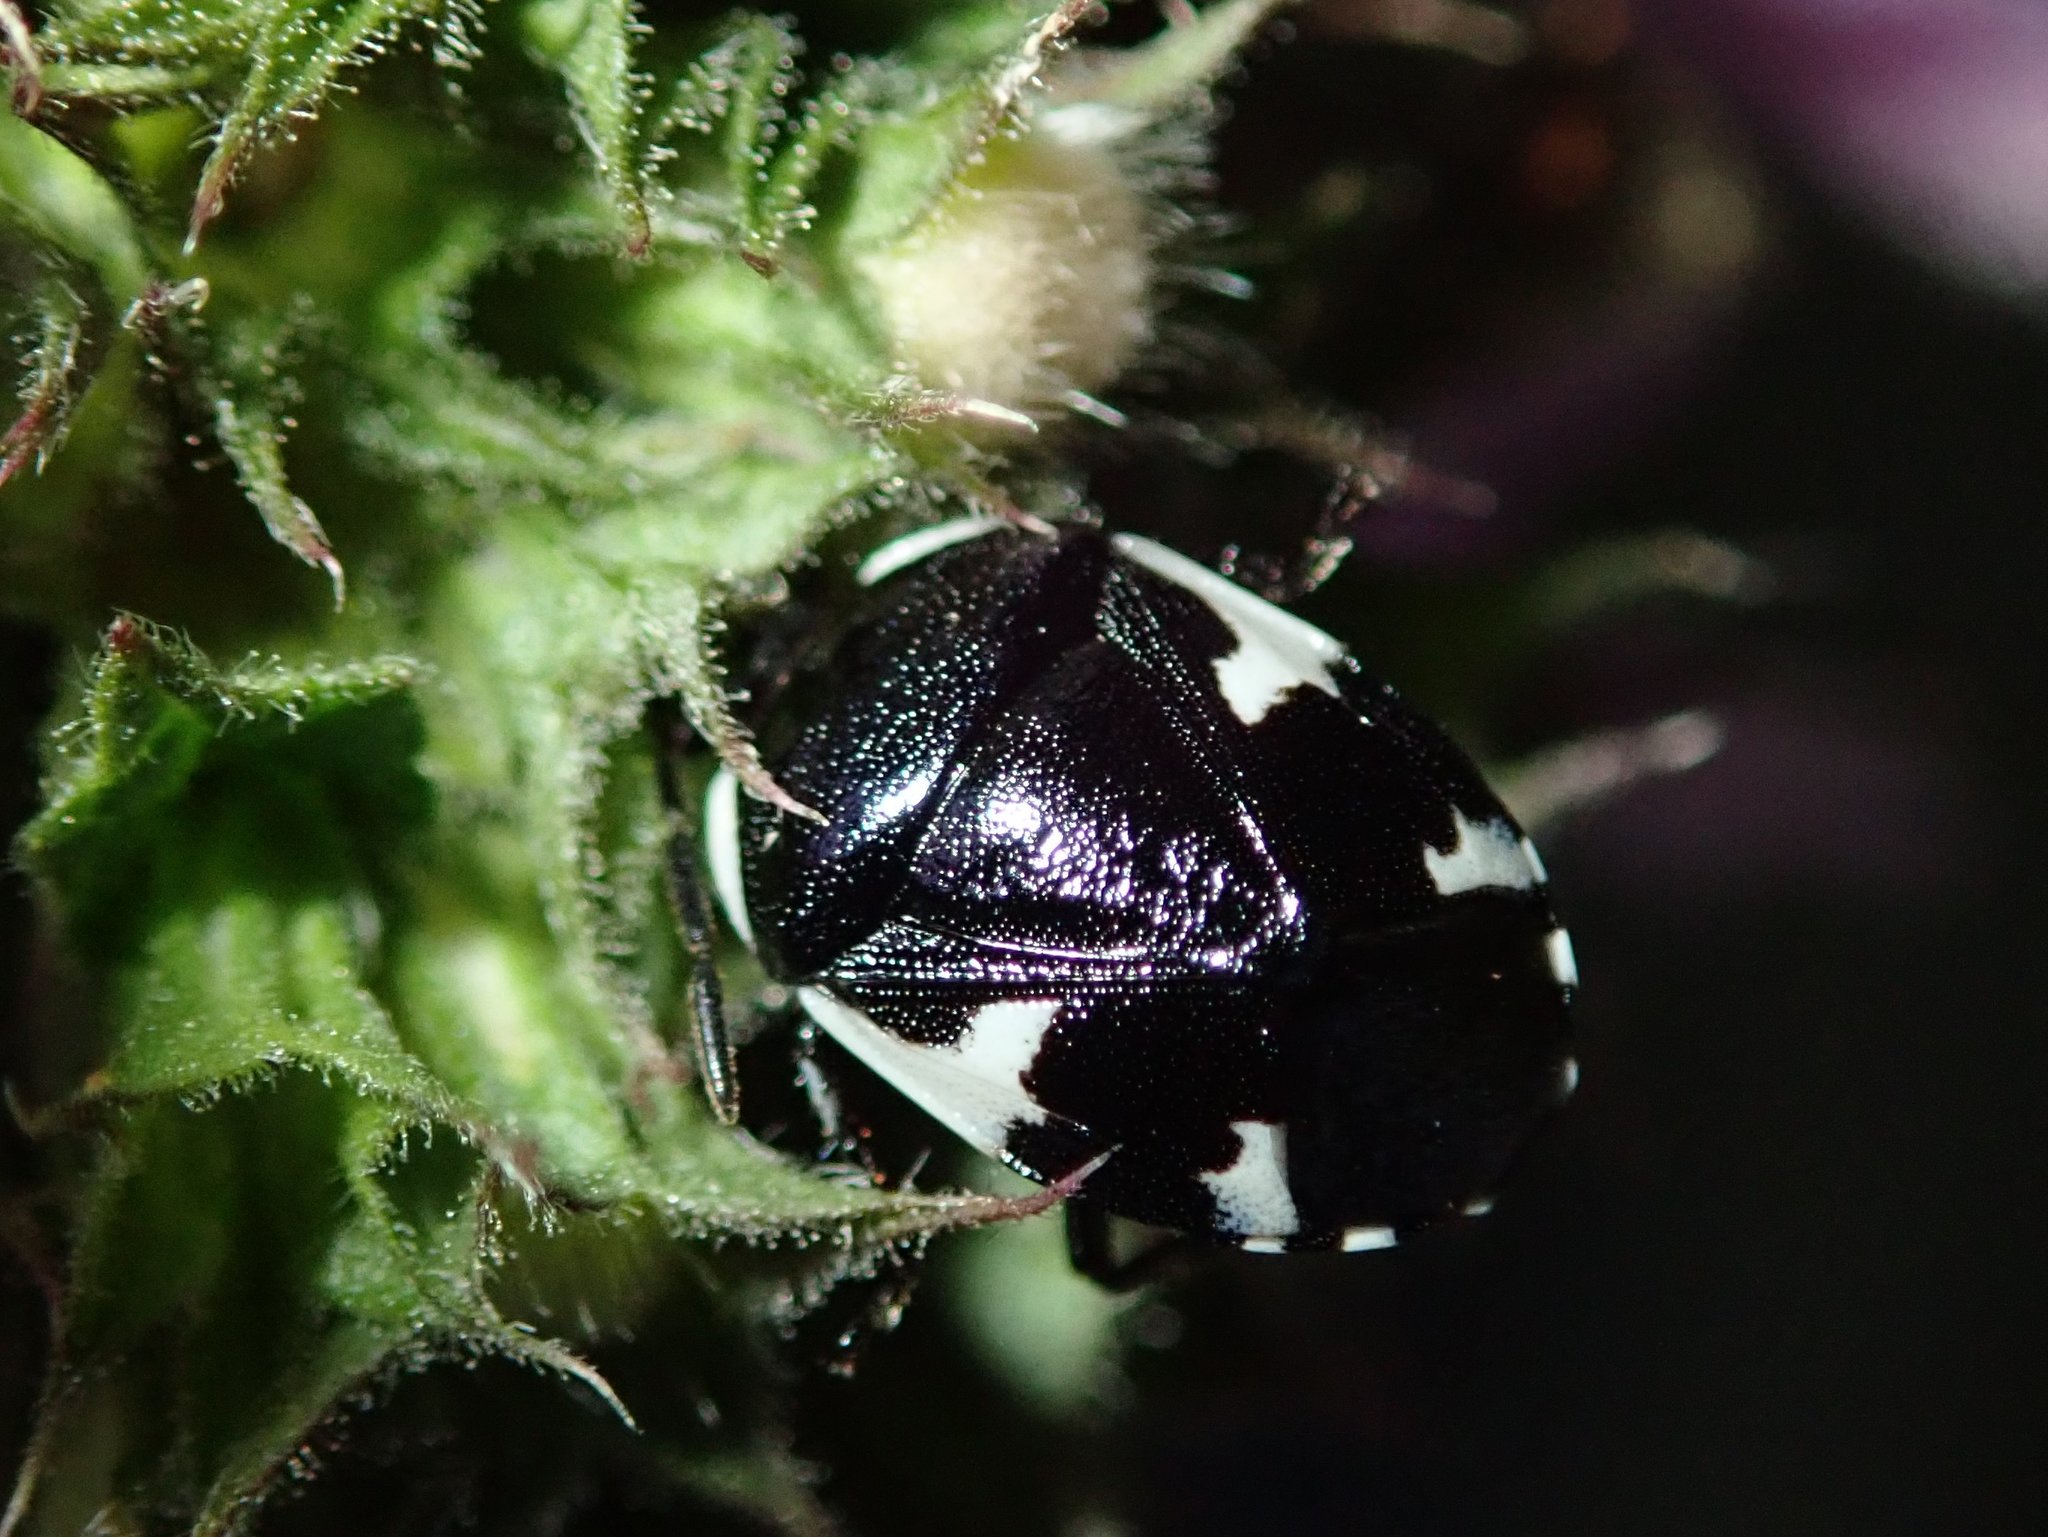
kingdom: Animalia
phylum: Arthropoda
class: Insecta
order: Hemiptera
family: Cydnidae
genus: Tritomegas
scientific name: Tritomegas sexmaculatus
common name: Rambur's pied shieldbug
